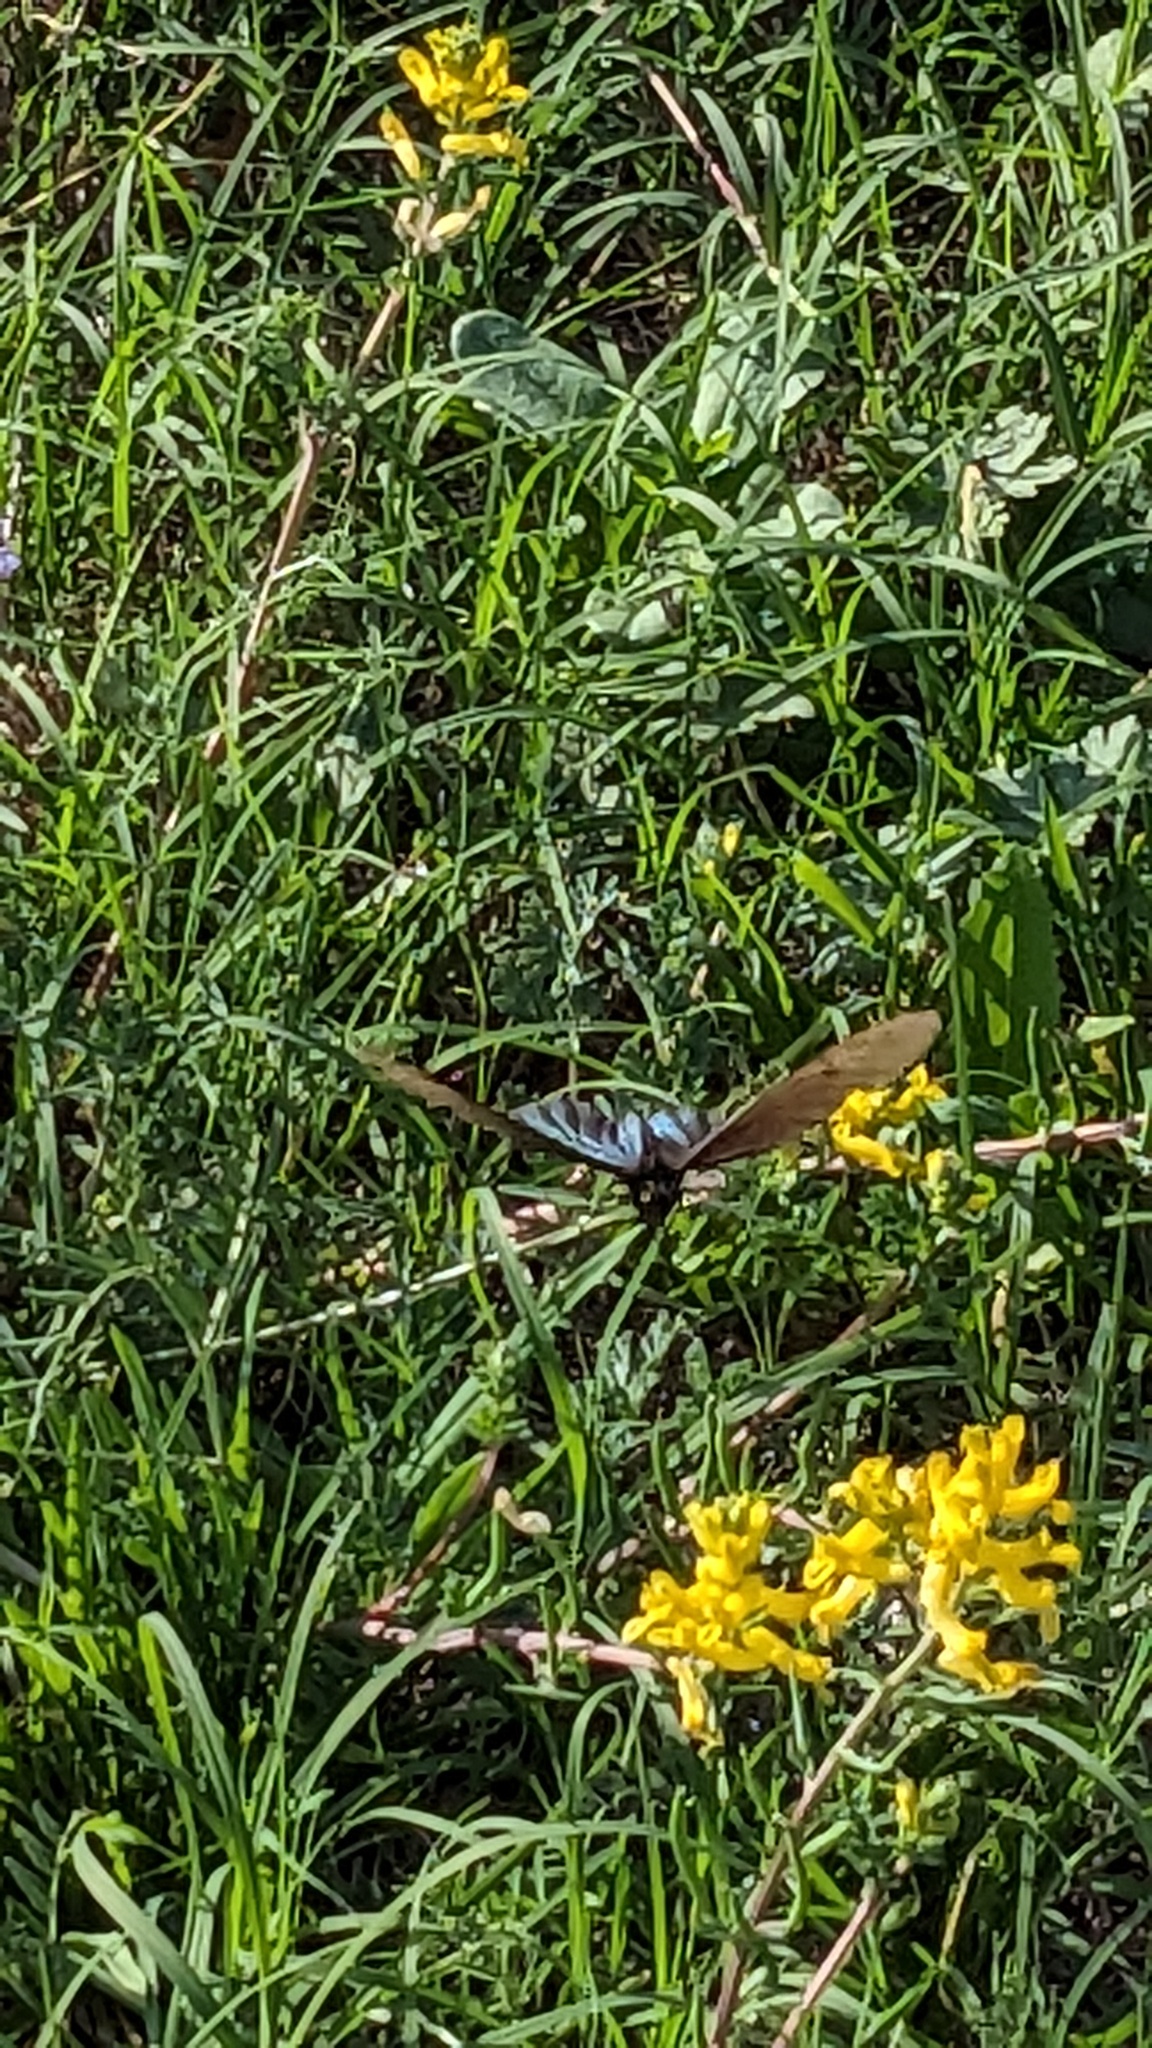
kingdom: Animalia
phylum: Arthropoda
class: Insecta
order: Lepidoptera
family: Papilionidae
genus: Battus
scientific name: Battus philenor
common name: Pipevine swallowtail
